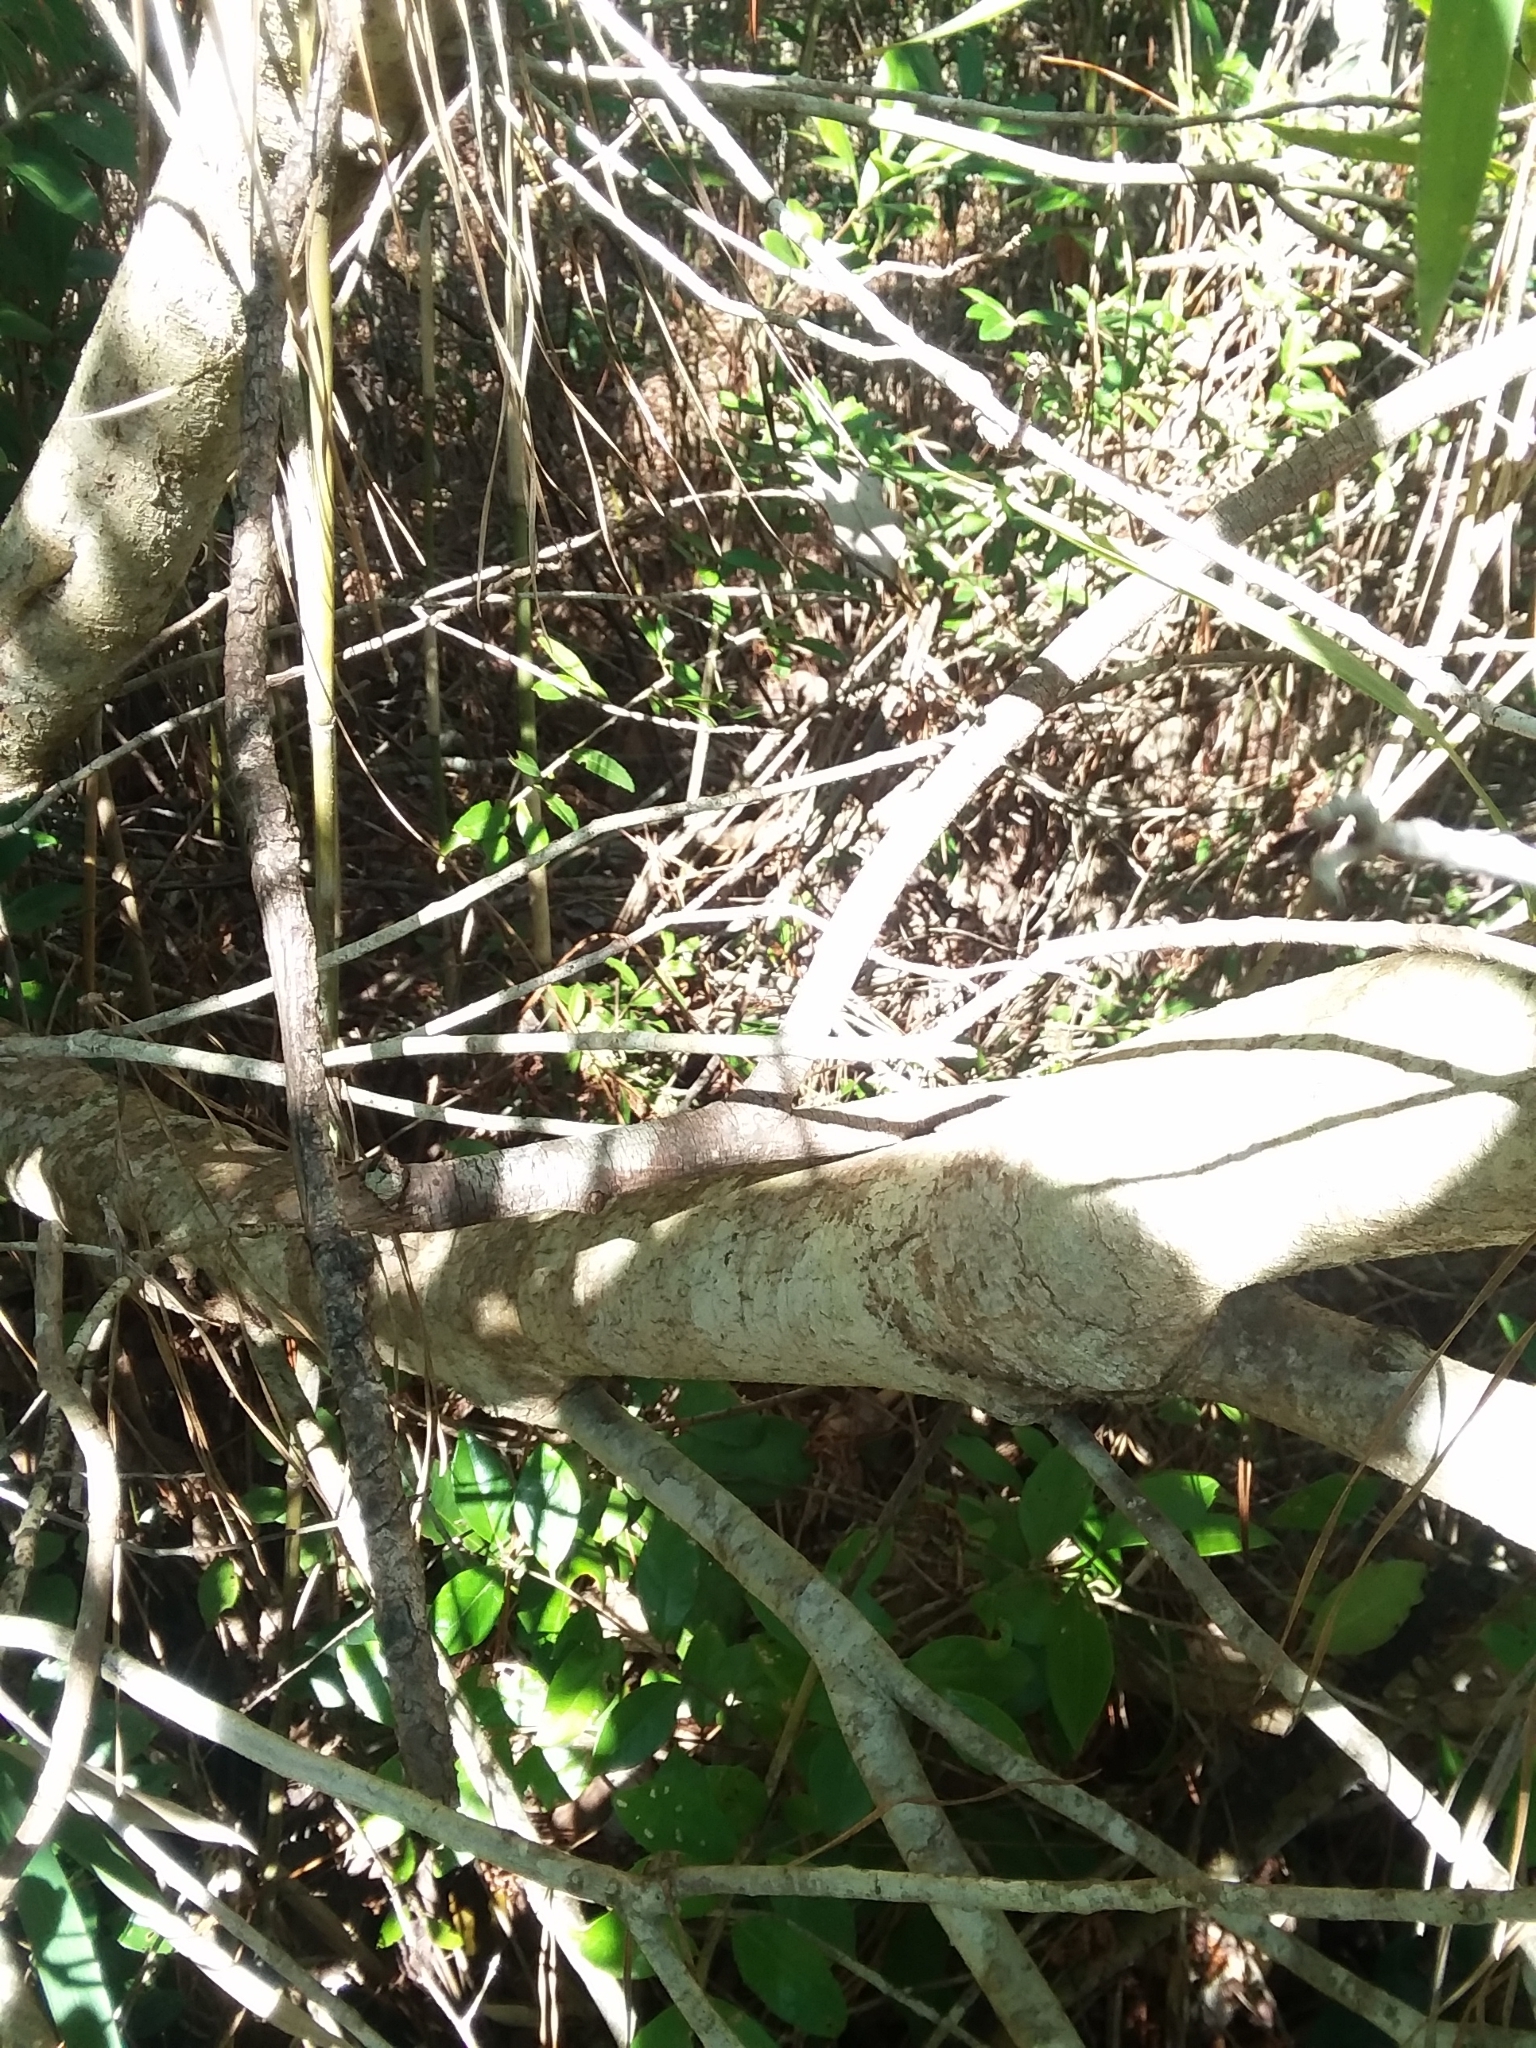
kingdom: Plantae
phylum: Tracheophyta
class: Magnoliopsida
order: Fagales
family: Myricaceae
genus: Morella
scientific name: Morella inodora
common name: Candle-berry
